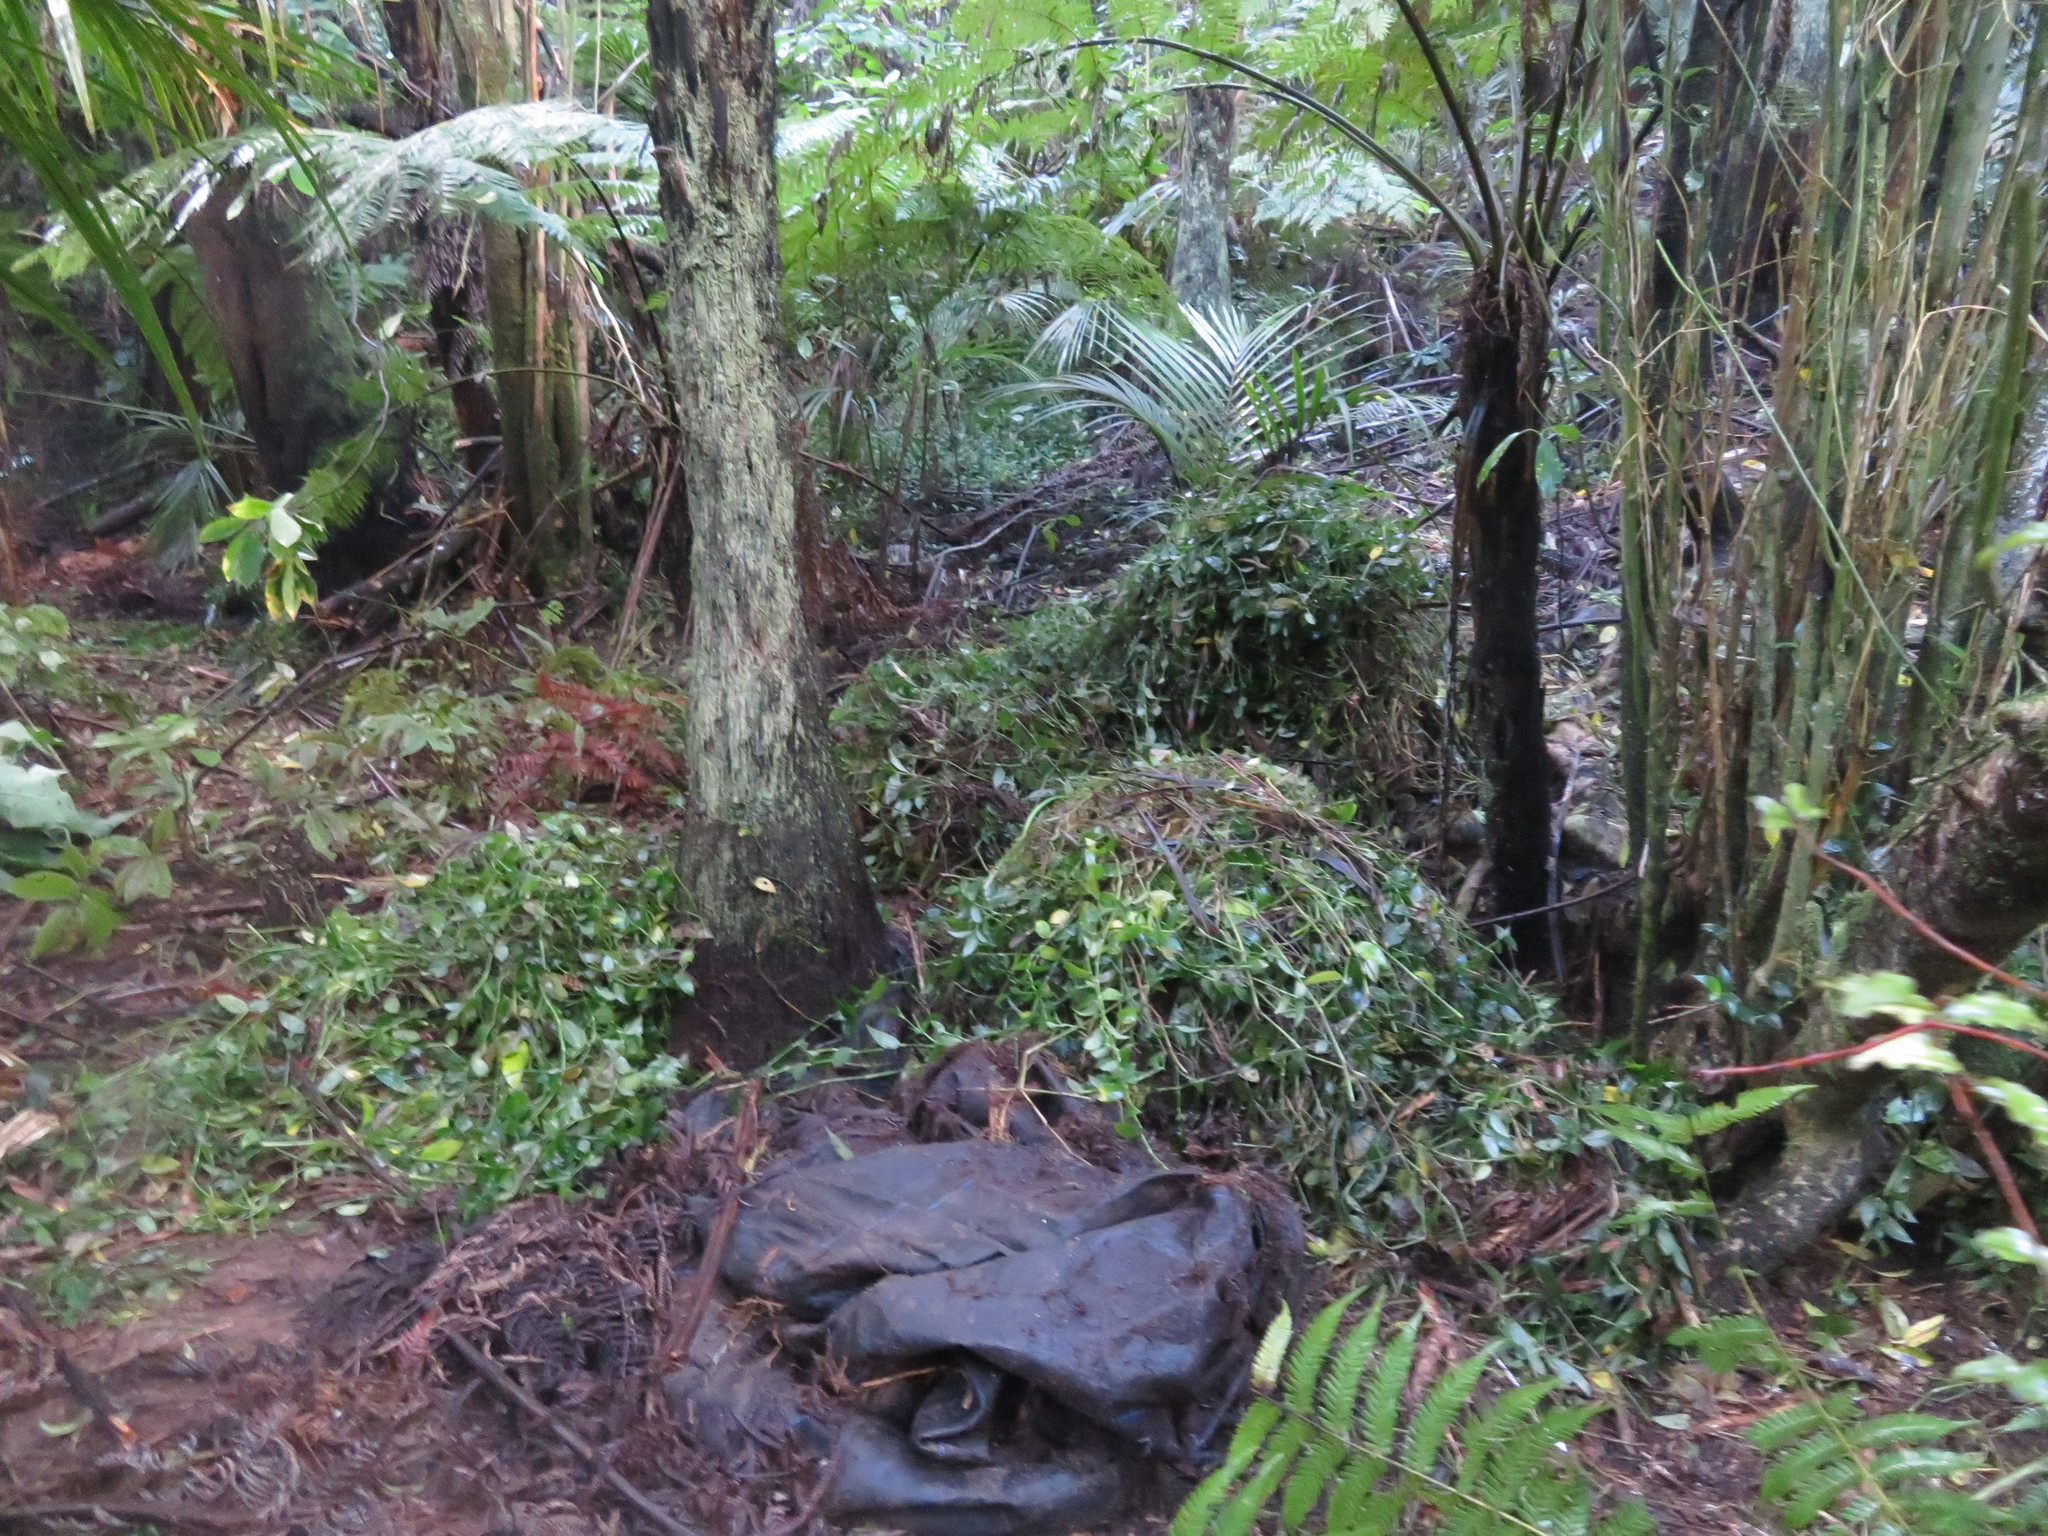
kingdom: Plantae
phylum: Tracheophyta
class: Liliopsida
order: Commelinales
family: Commelinaceae
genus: Tradescantia
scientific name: Tradescantia fluminensis
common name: Wandering-jew
